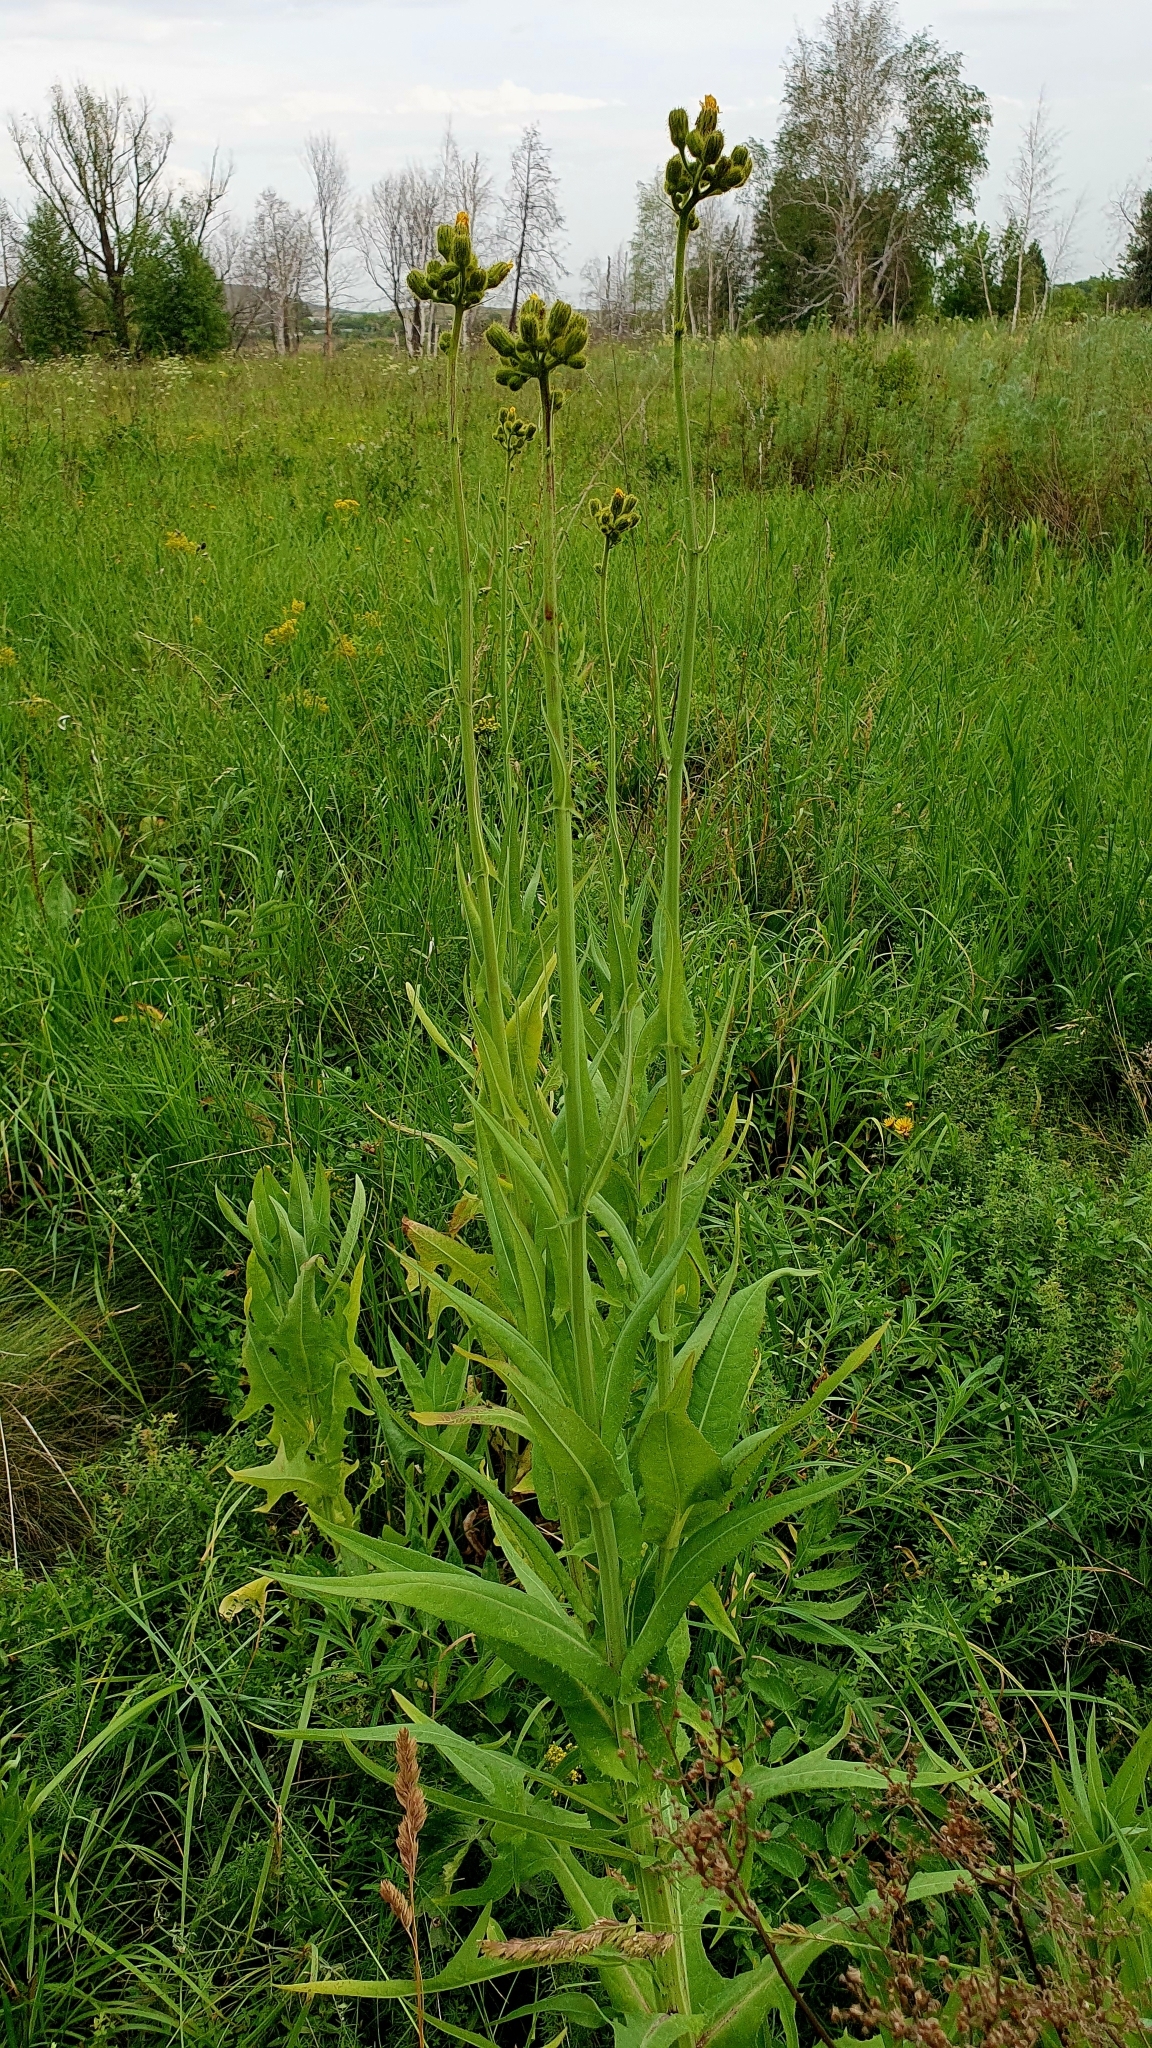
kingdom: Plantae
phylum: Tracheophyta
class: Magnoliopsida
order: Asterales
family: Asteraceae
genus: Sonchus
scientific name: Sonchus palustris
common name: Marsh sow-thistle
